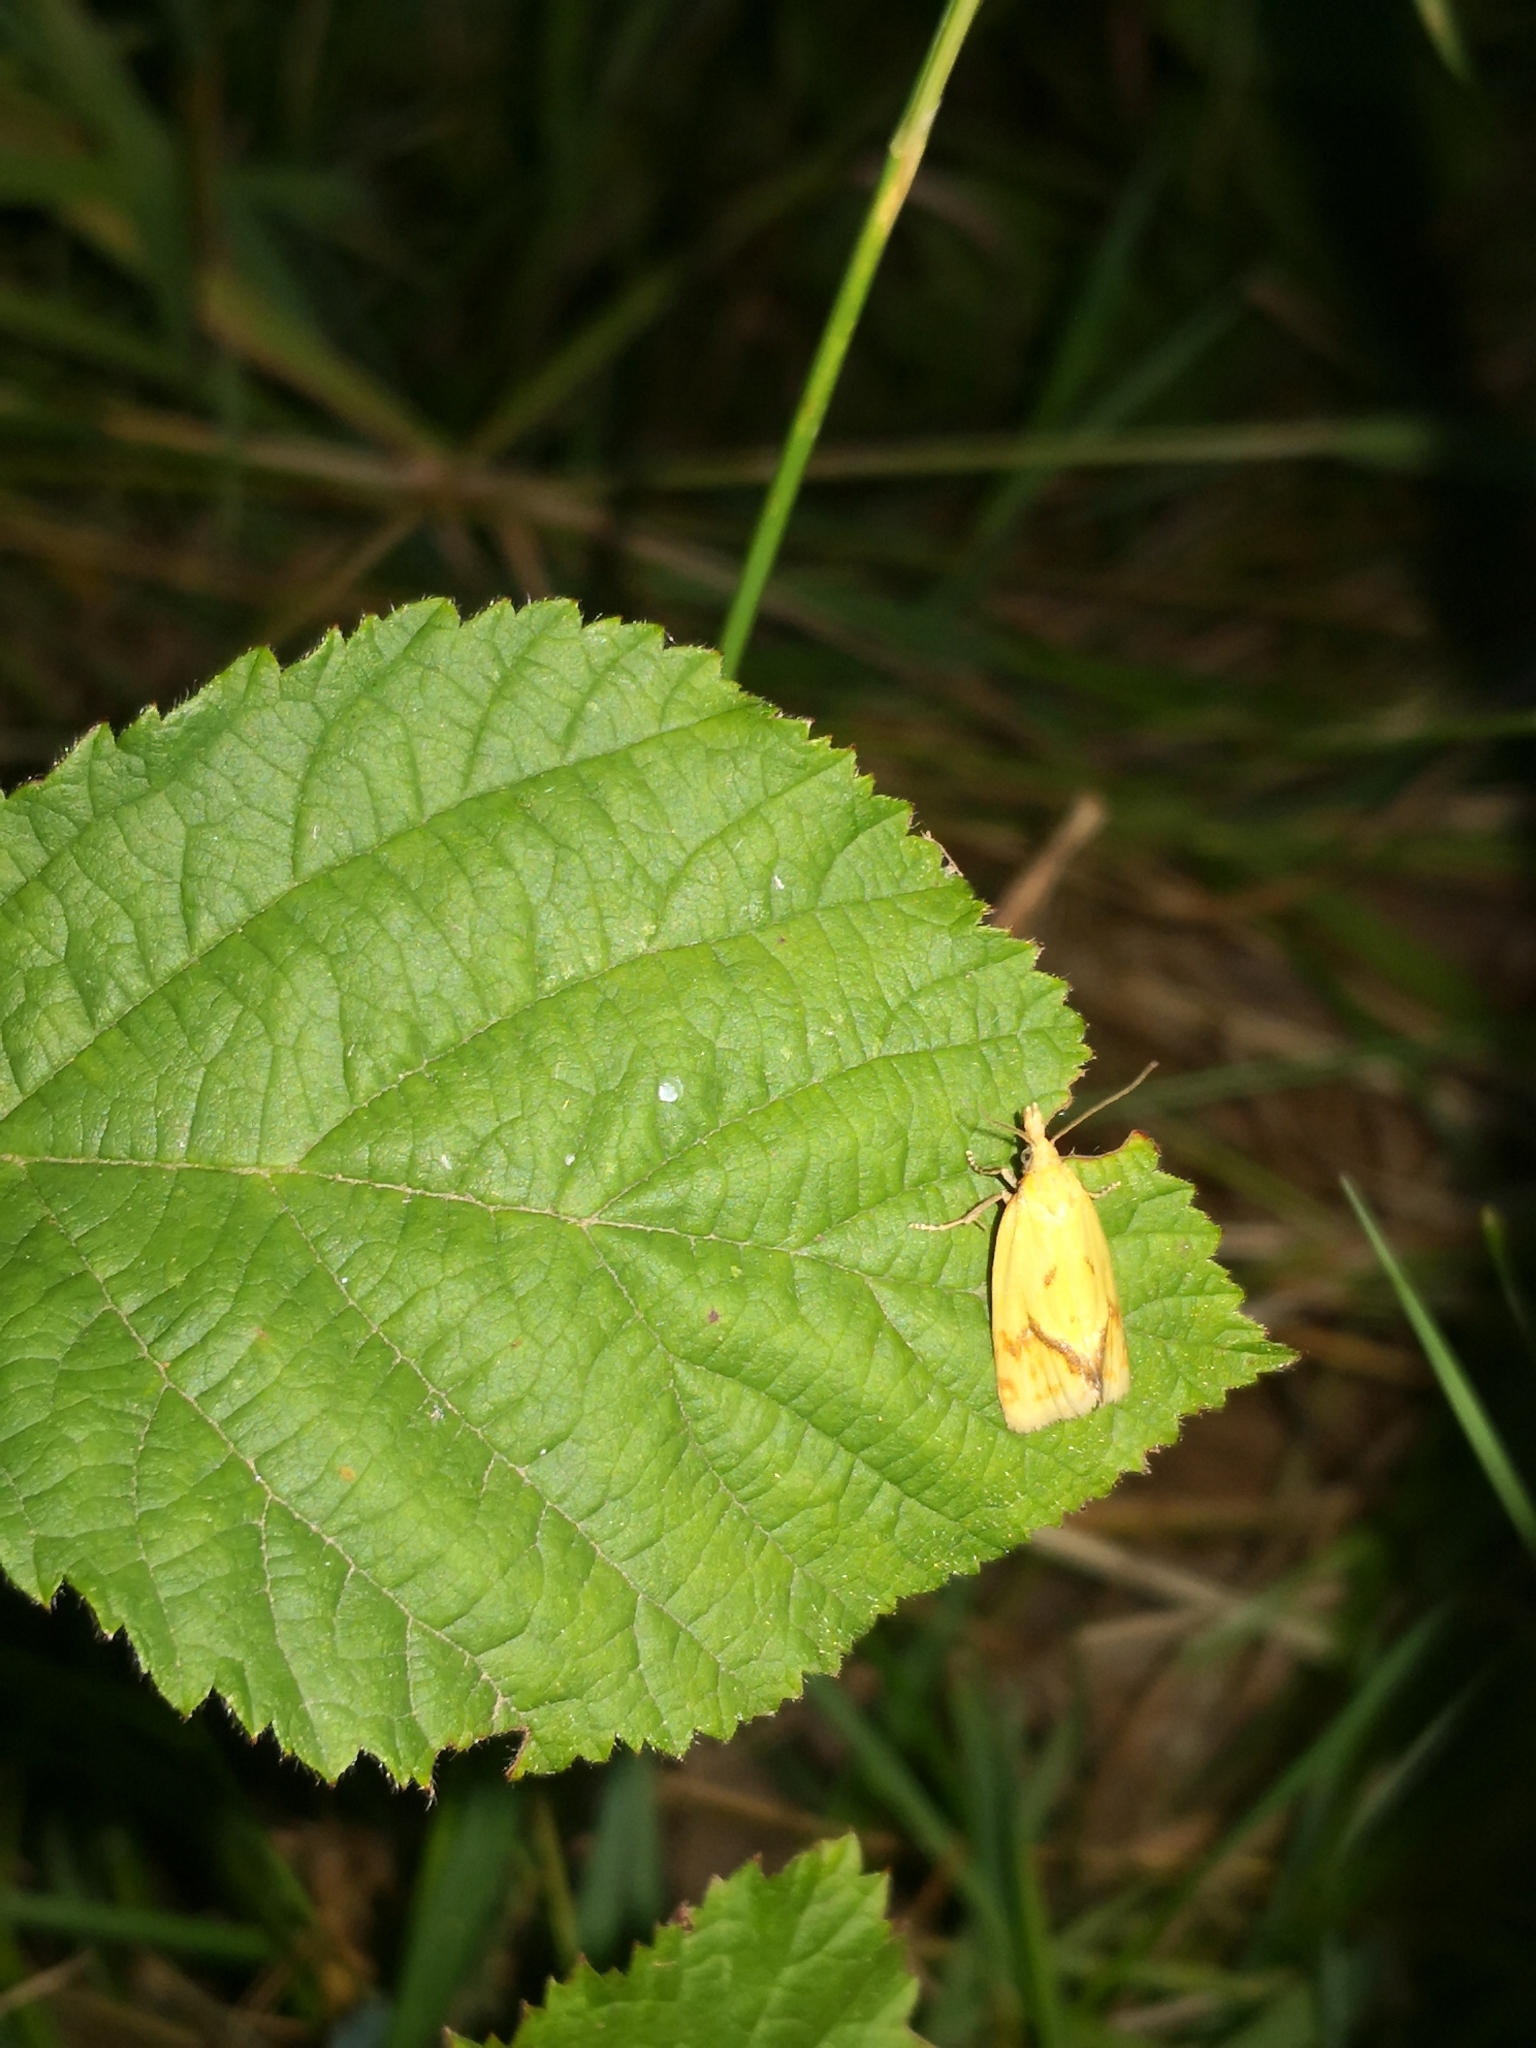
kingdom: Animalia
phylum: Arthropoda
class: Insecta
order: Lepidoptera
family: Tortricidae
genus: Agapeta
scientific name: Agapeta hamana
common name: Common yellow conch
